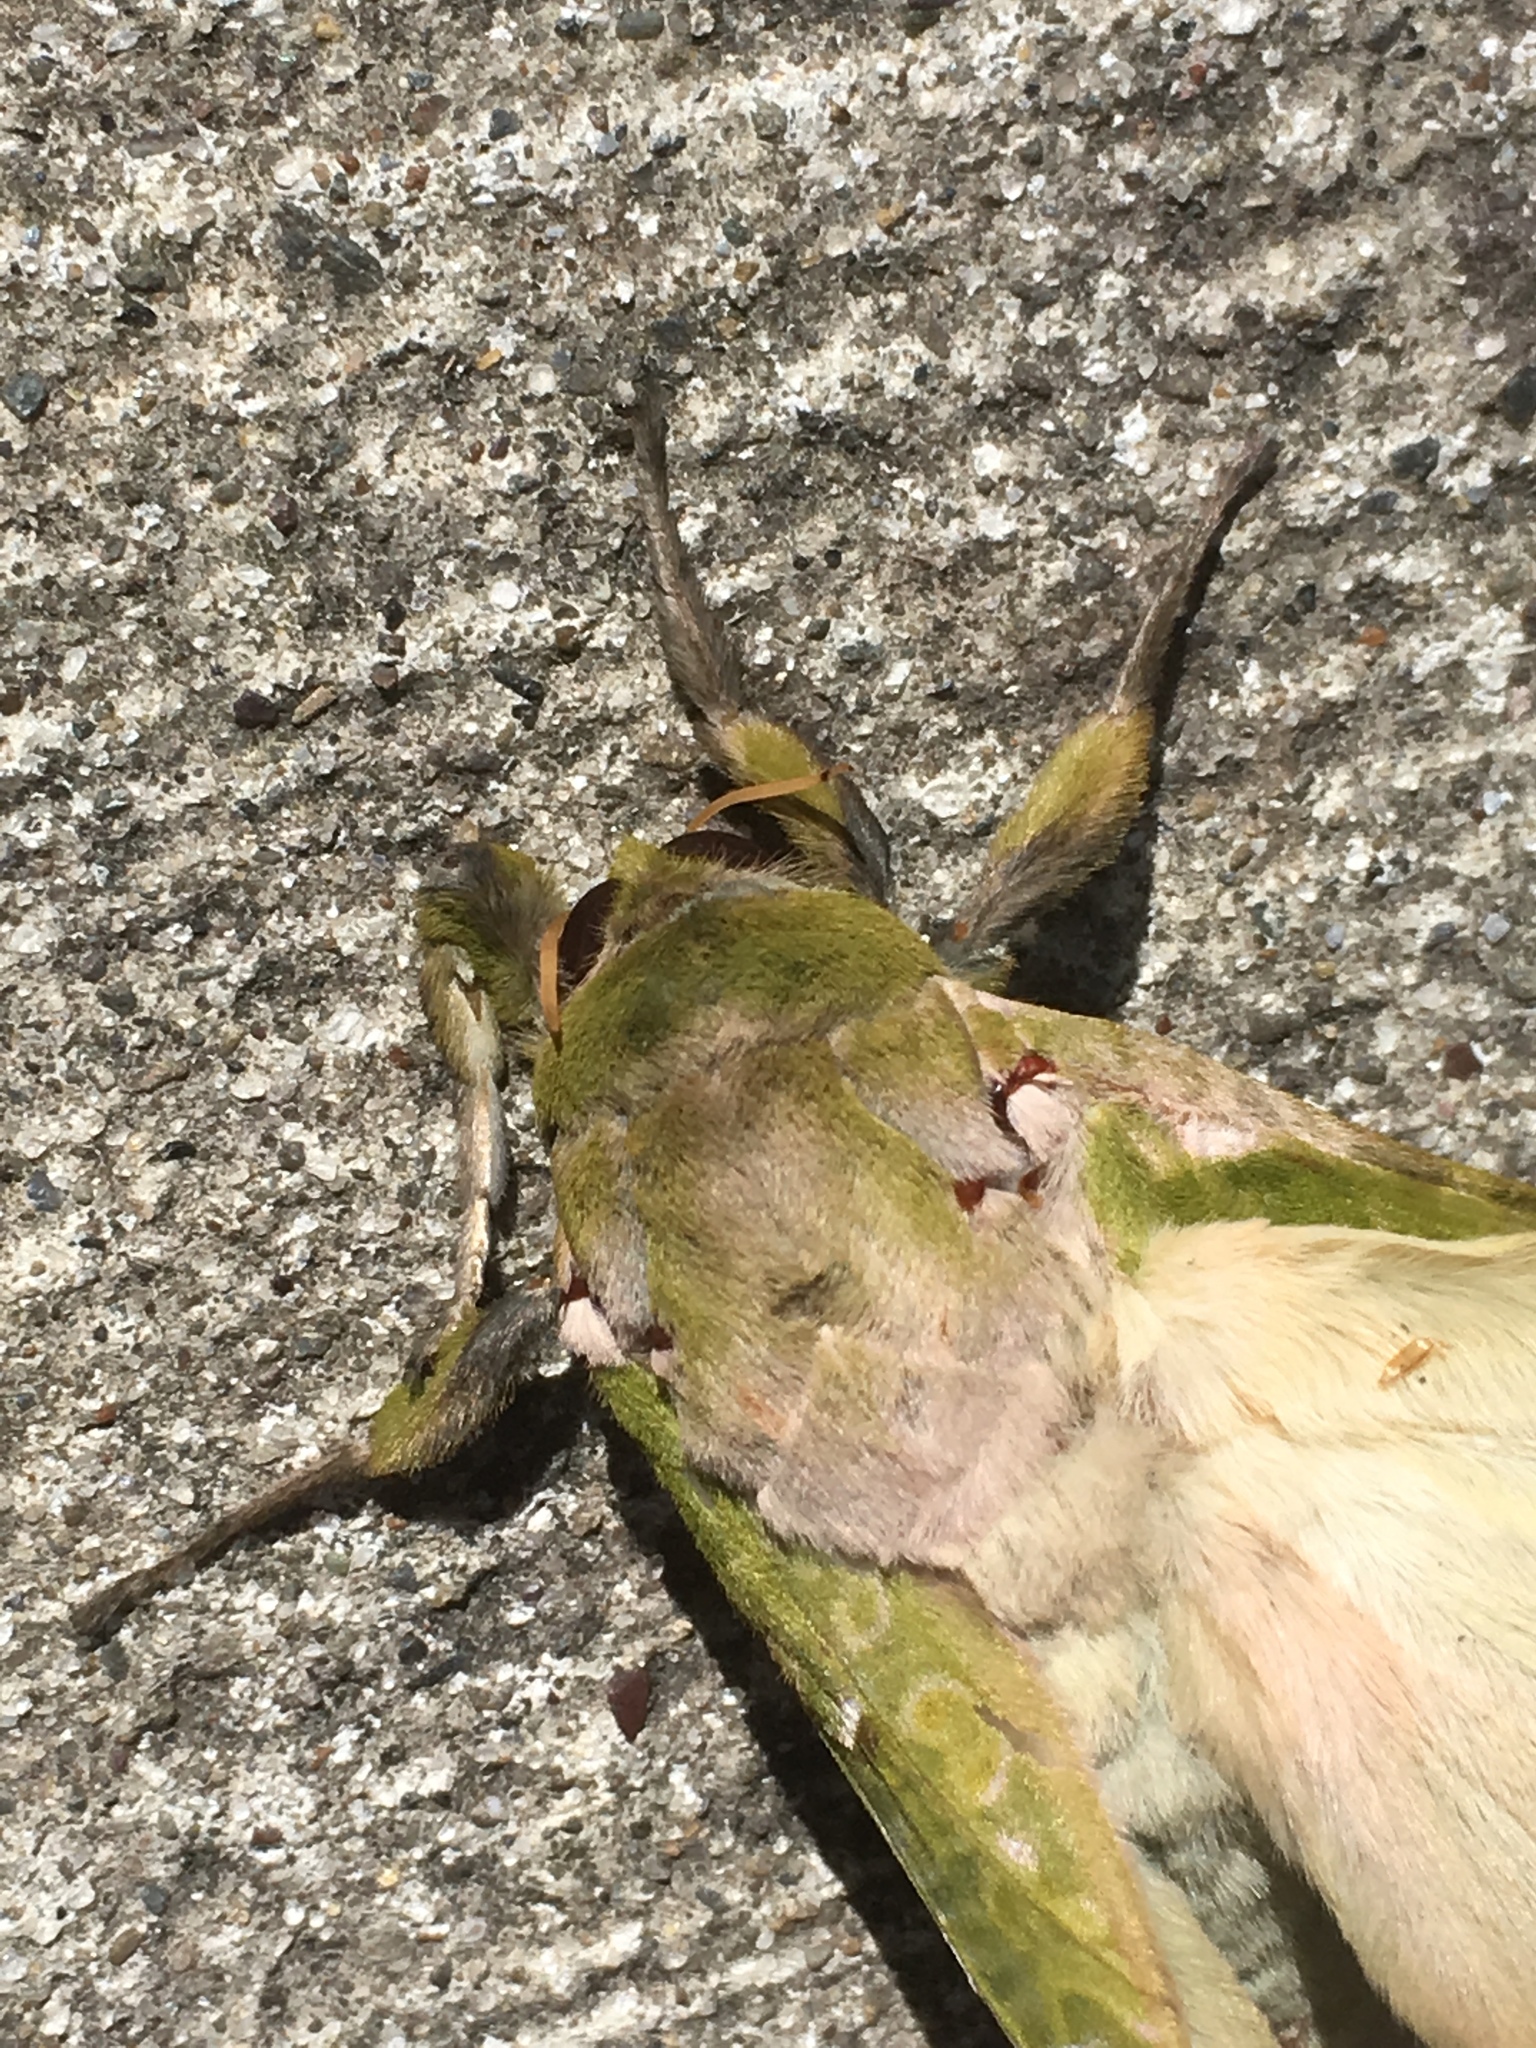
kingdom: Animalia
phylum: Arthropoda
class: Insecta
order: Lepidoptera
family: Hepialidae
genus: Aenetus
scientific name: Aenetus virescens
